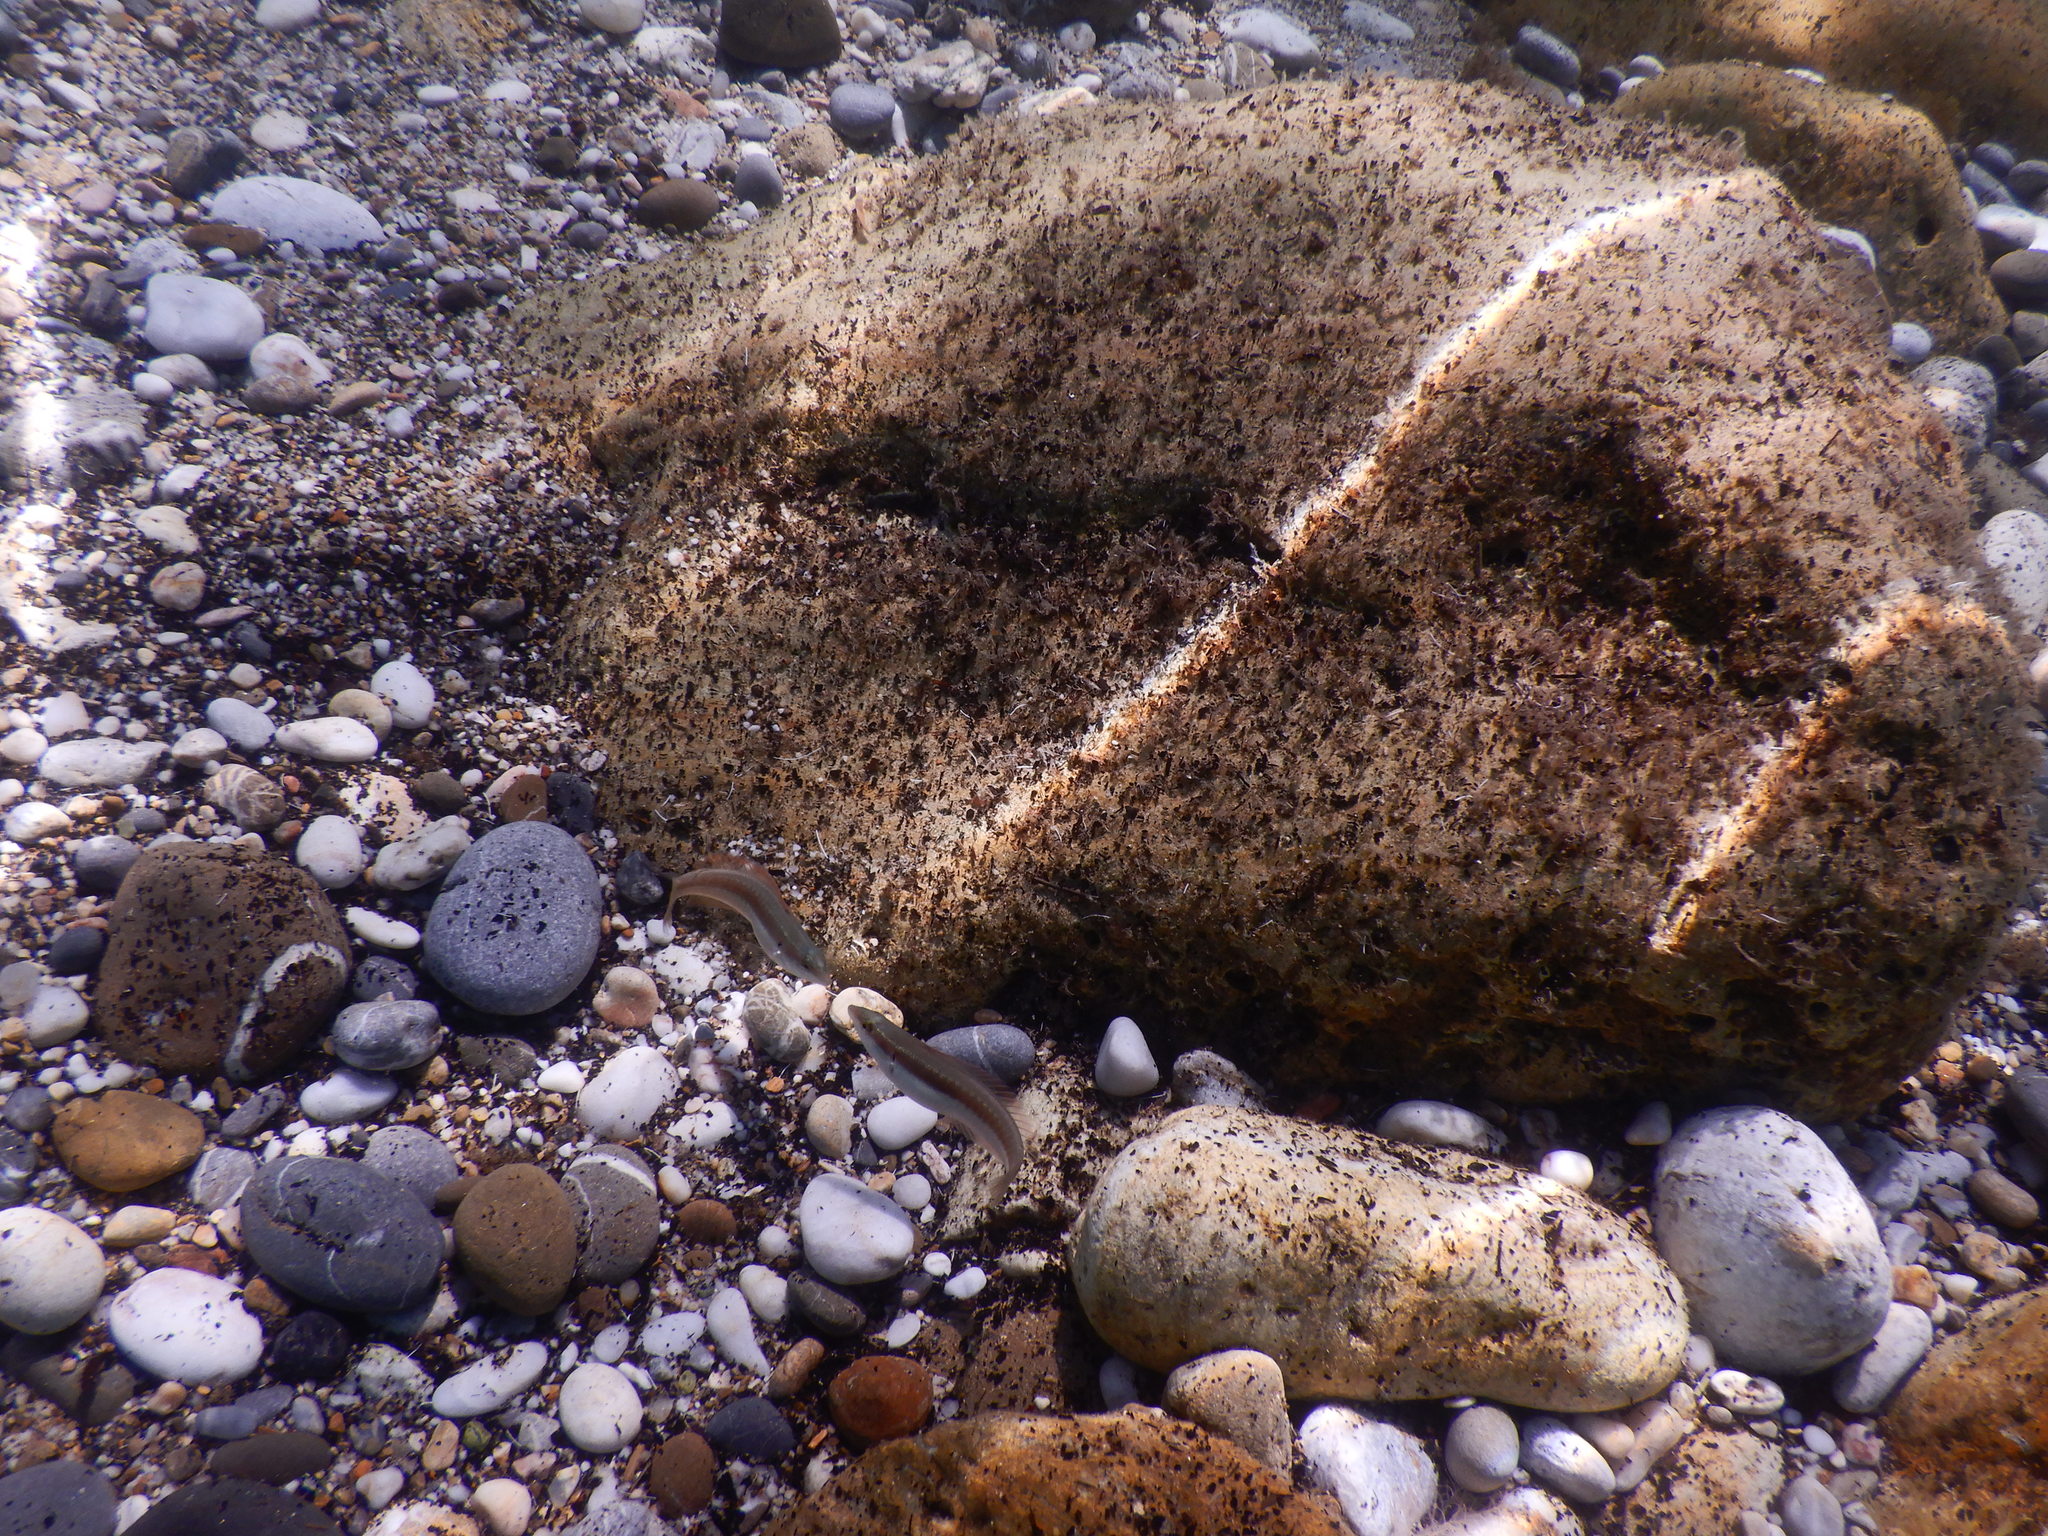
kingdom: Animalia
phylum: Chordata
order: Perciformes
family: Labridae
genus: Coris
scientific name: Coris julis
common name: Rainbow wrasse
